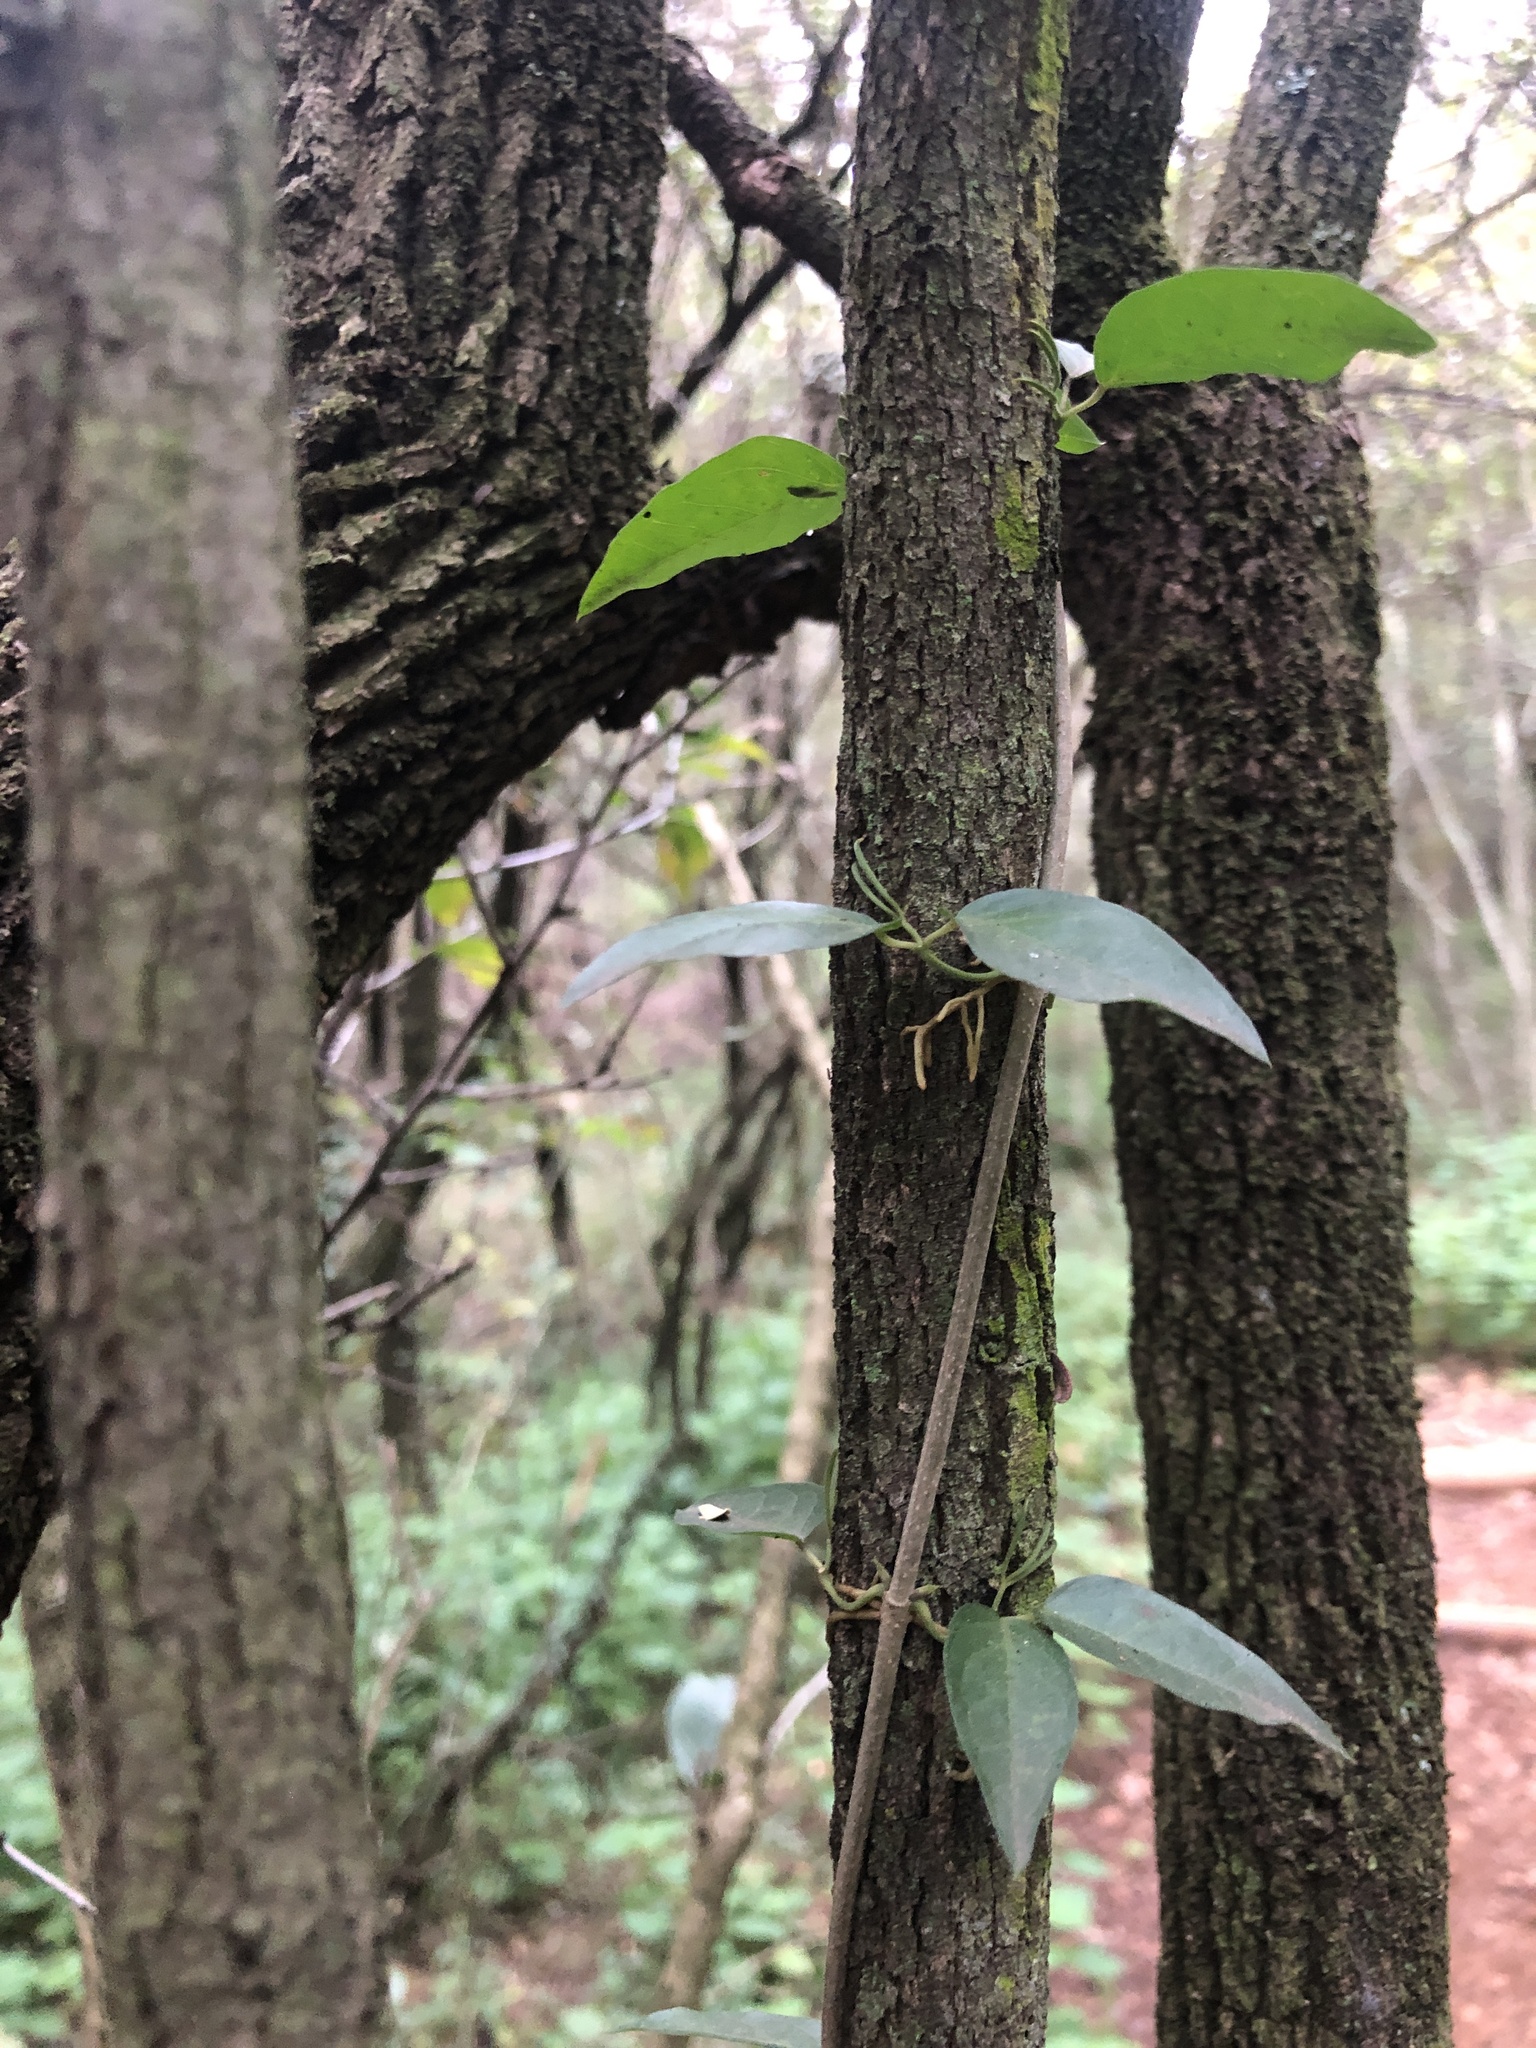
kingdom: Plantae
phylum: Tracheophyta
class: Magnoliopsida
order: Lamiales
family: Bignoniaceae
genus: Dolichandra
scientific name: Dolichandra unguis-cati
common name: Catclaw vine
